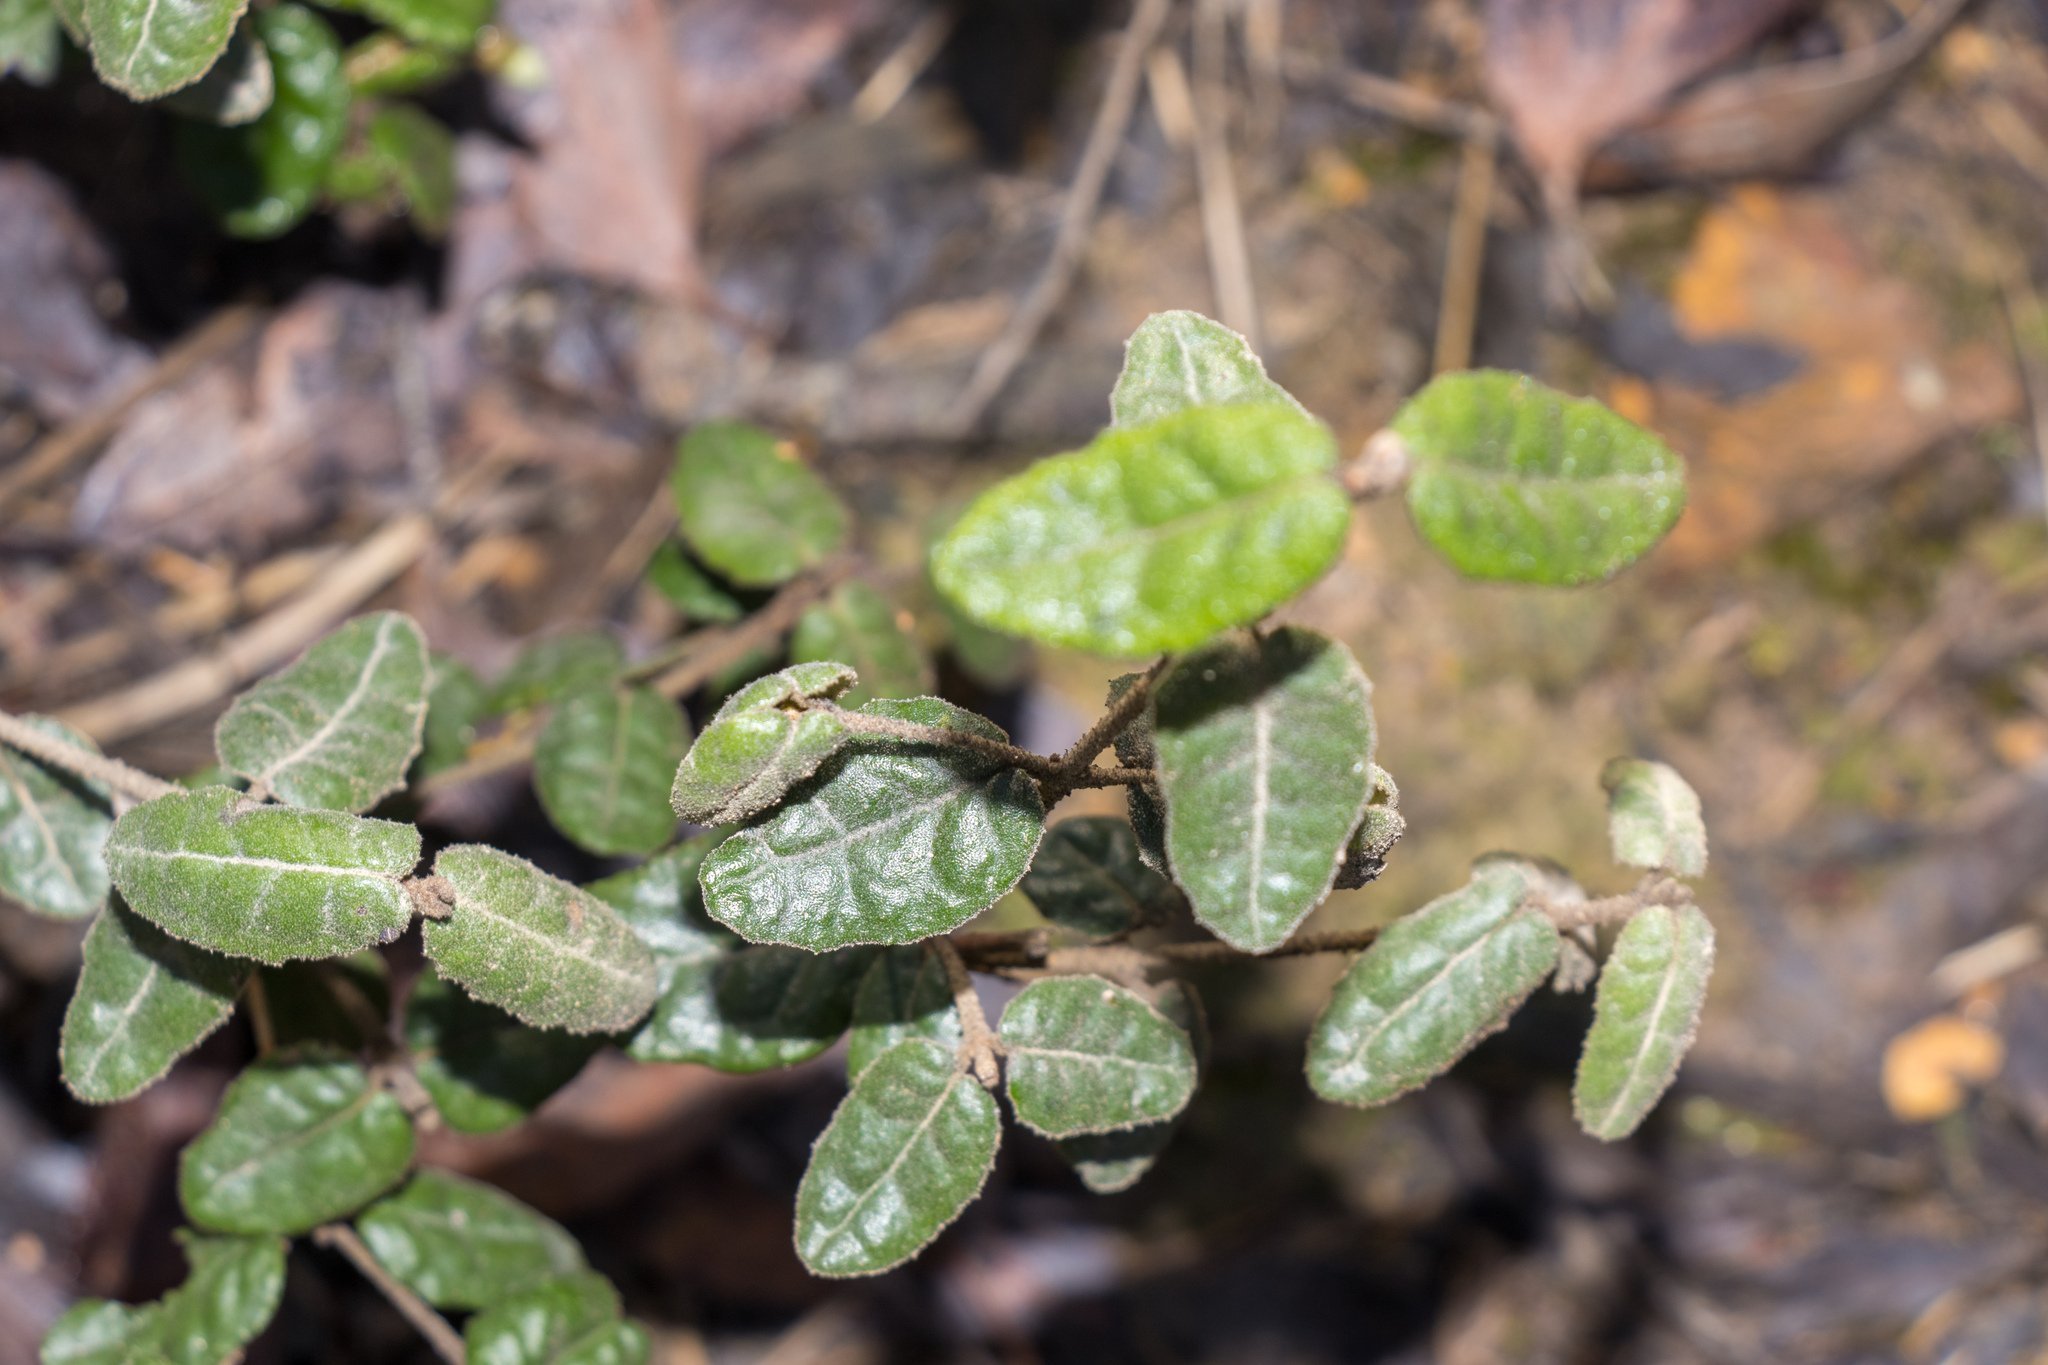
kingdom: Plantae
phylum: Tracheophyta
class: Magnoliopsida
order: Sapindales
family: Rutaceae
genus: Correa
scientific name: Correa reflexa
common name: Common correa
